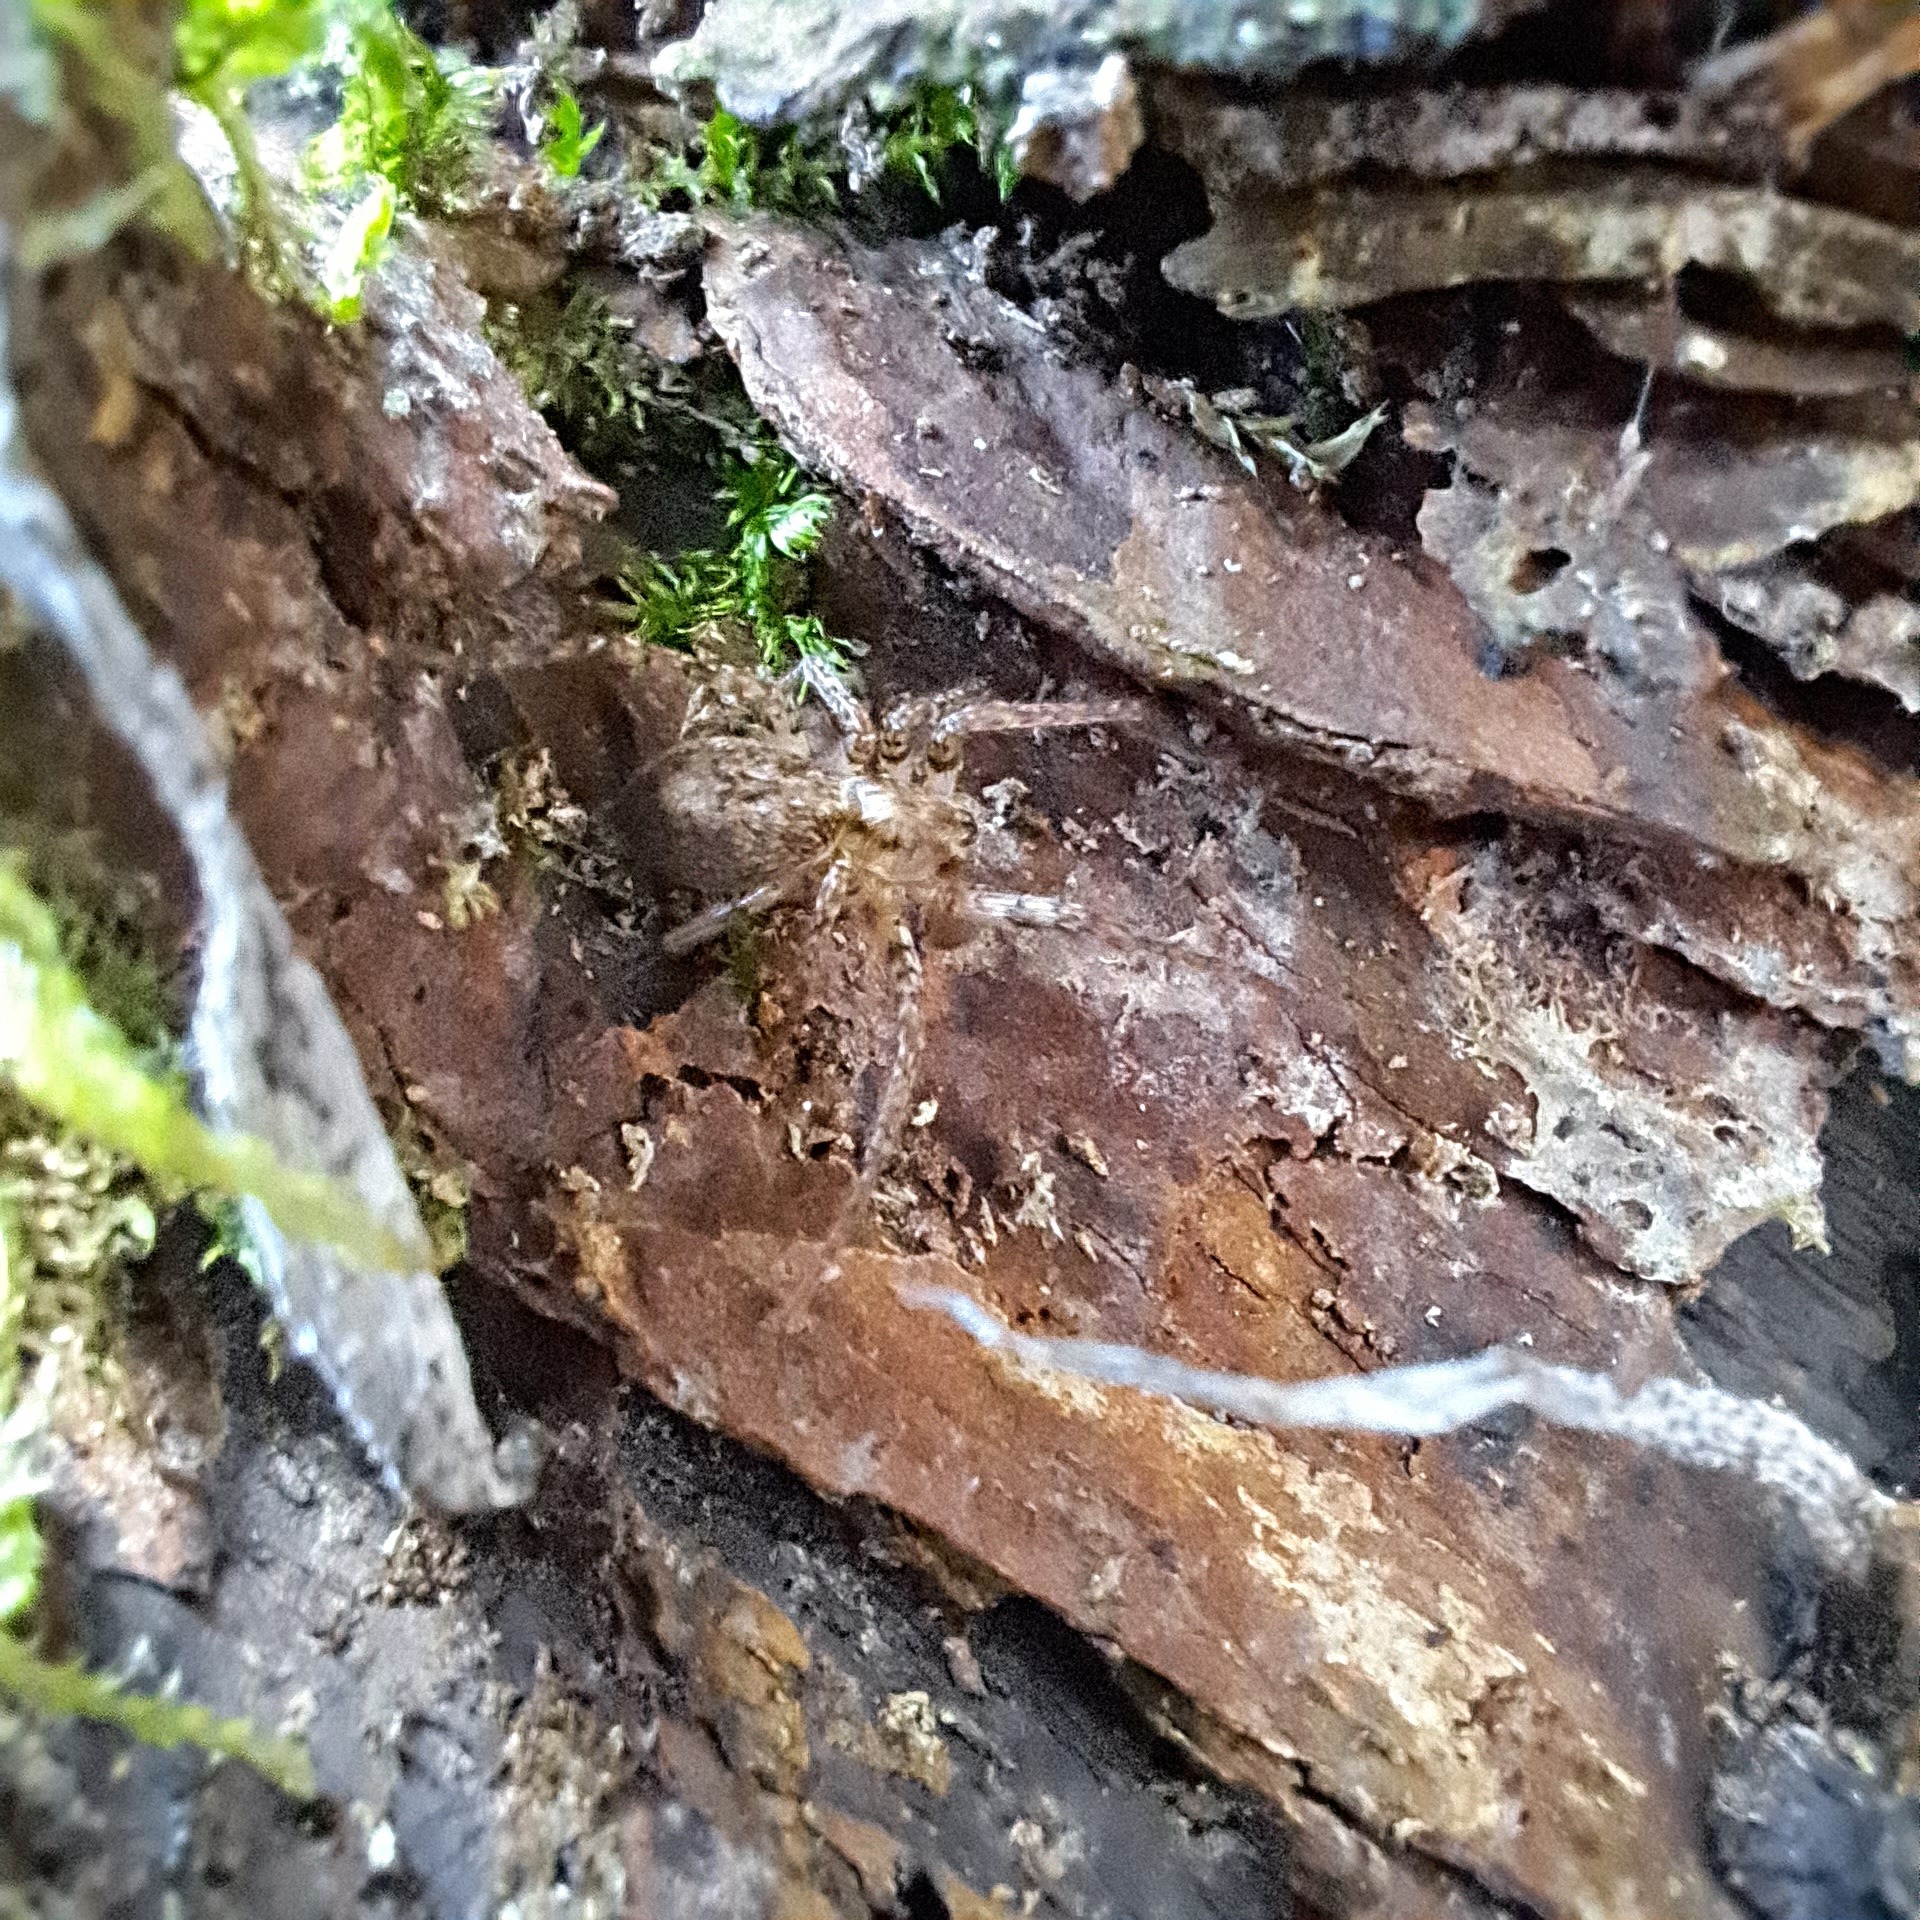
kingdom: Animalia
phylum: Arthropoda
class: Arachnida
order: Araneae
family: Anyphaenidae
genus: Anyphaena
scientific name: Anyphaena accentuata
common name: Buzzing spider
